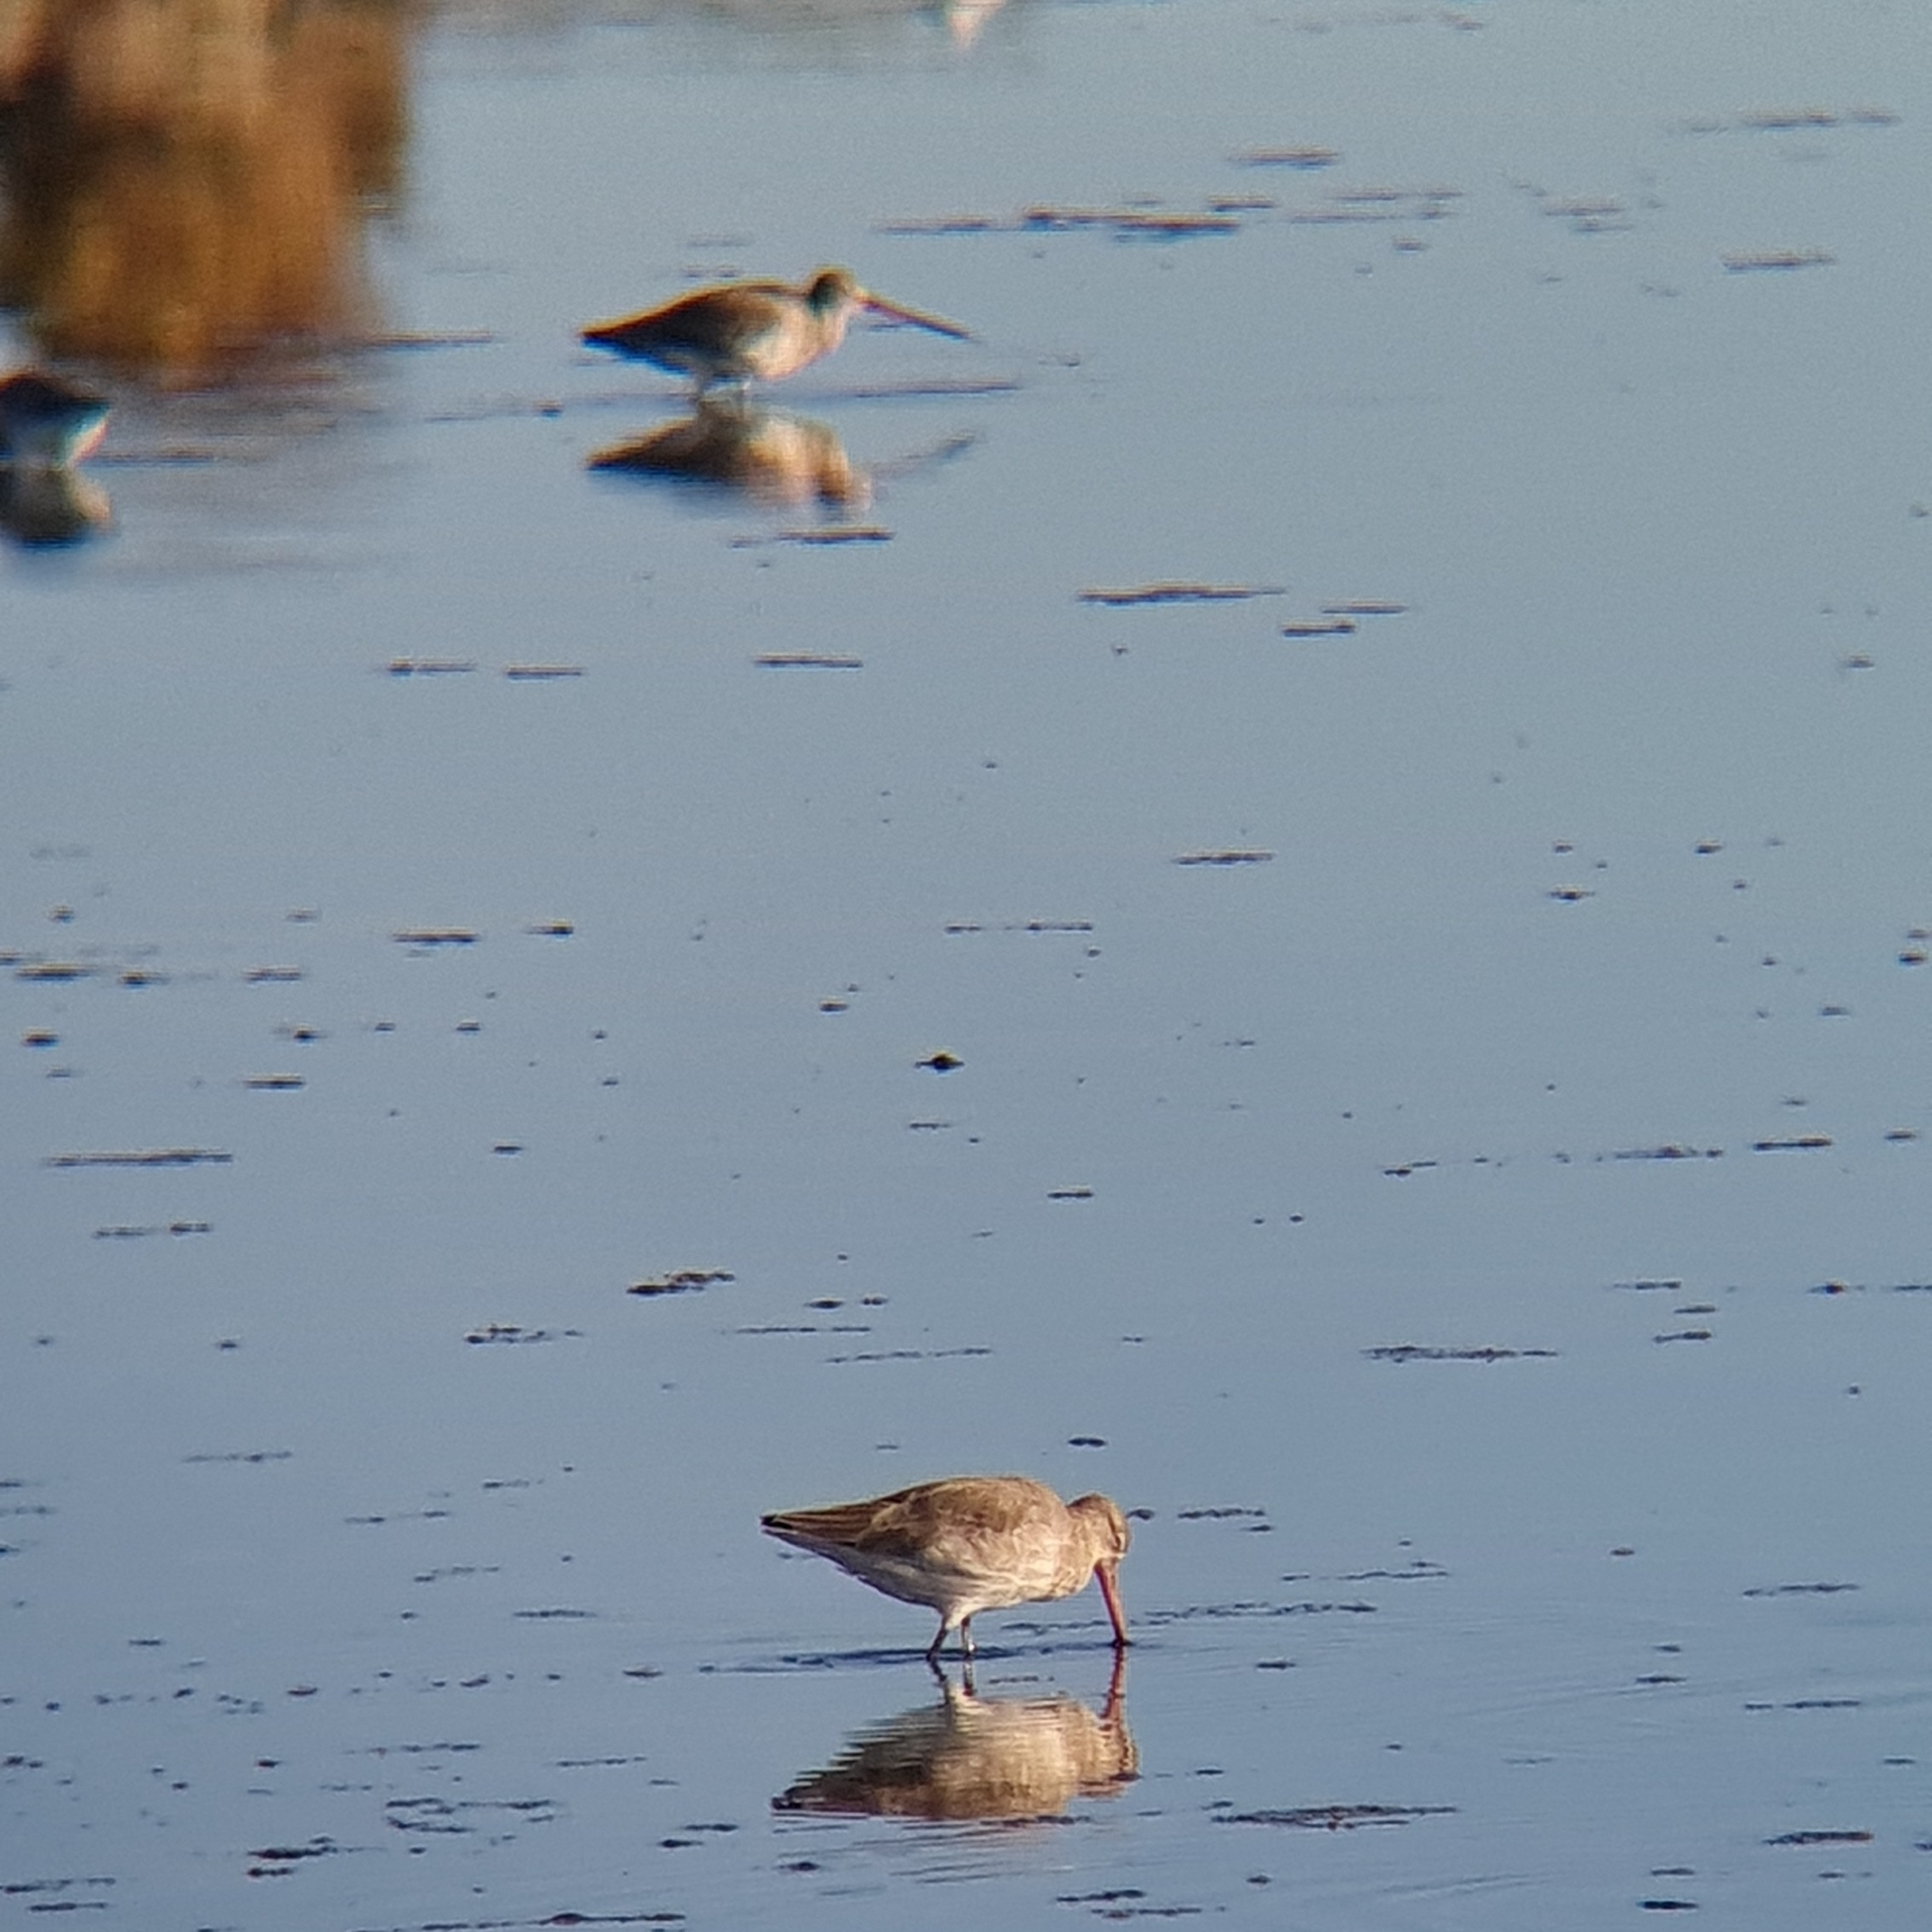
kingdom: Animalia
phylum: Chordata
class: Aves
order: Charadriiformes
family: Scolopacidae
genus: Limosa
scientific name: Limosa limosa
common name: Black-tailed godwit
